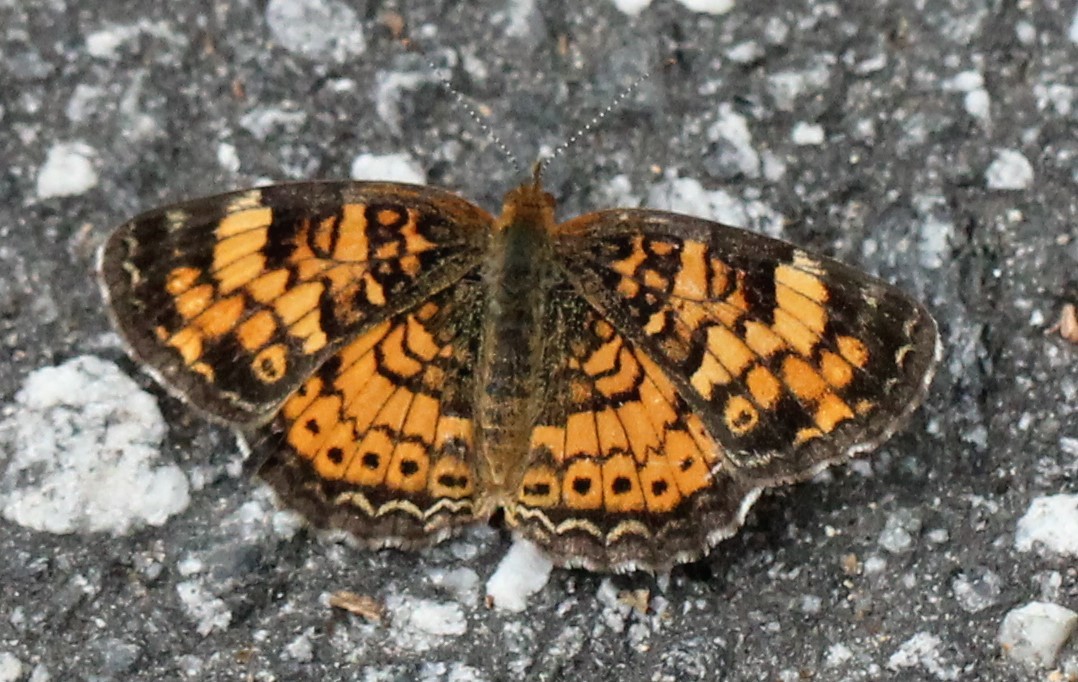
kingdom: Animalia
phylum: Arthropoda
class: Insecta
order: Lepidoptera
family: Nymphalidae
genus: Phyciodes
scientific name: Phyciodes tharos
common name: Pearl crescent
